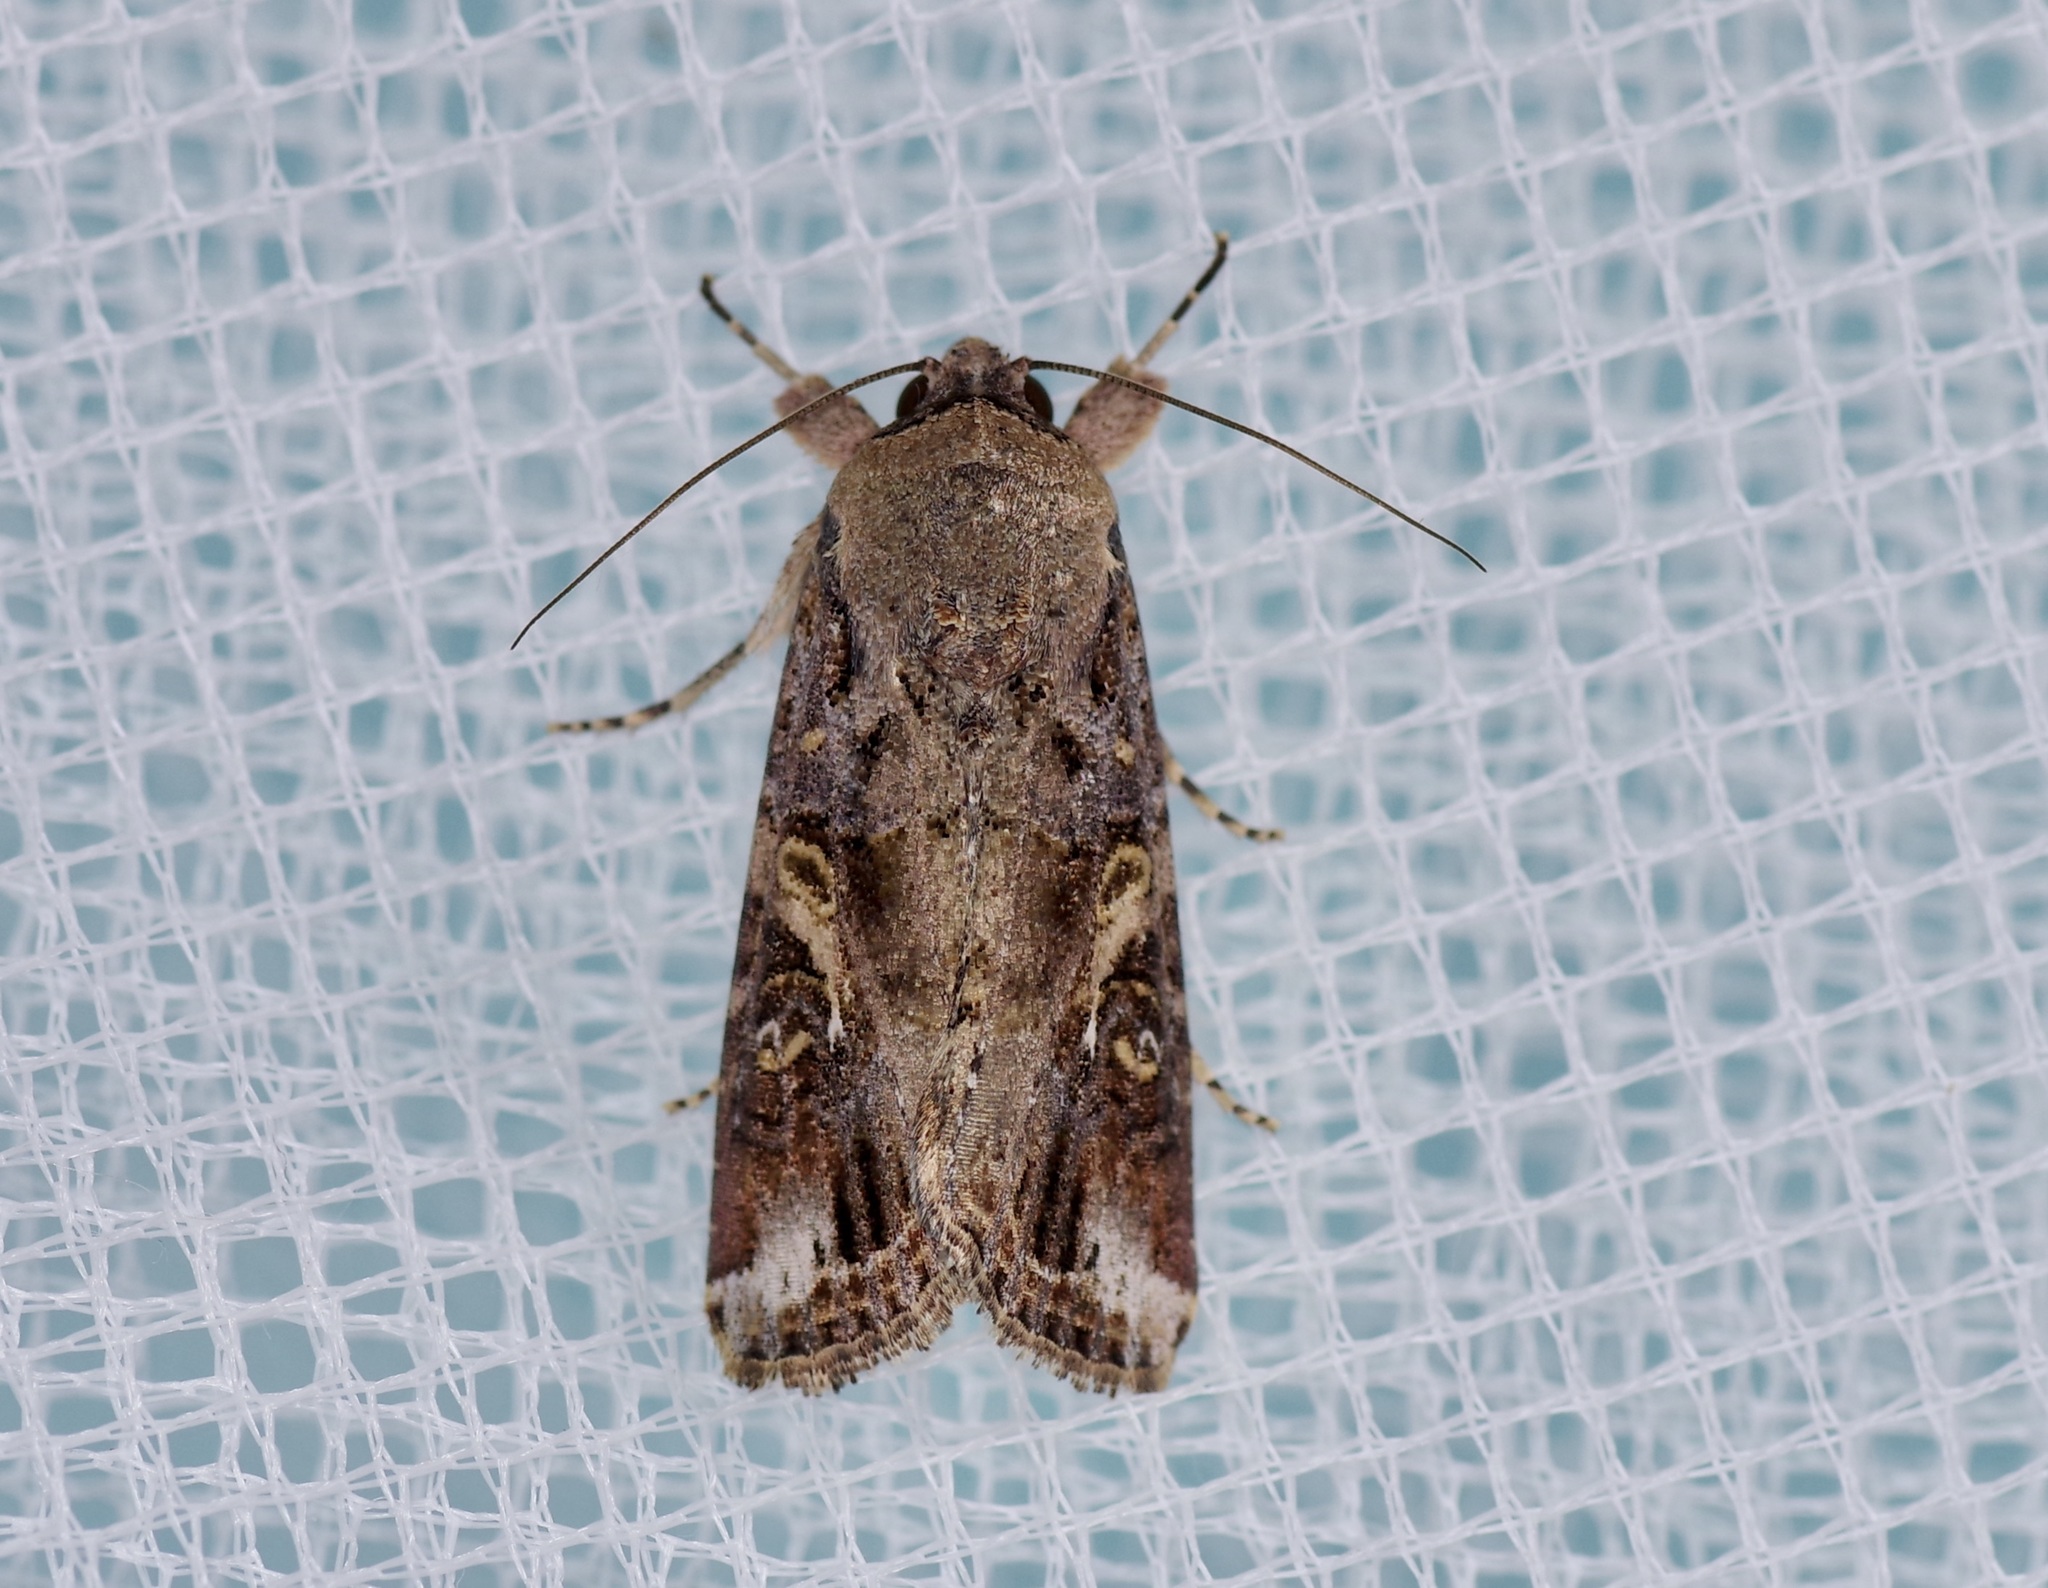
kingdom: Animalia
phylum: Arthropoda
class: Insecta
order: Lepidoptera
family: Noctuidae
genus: Spodoptera
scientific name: Spodoptera frugiperda
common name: Fall armyworm
